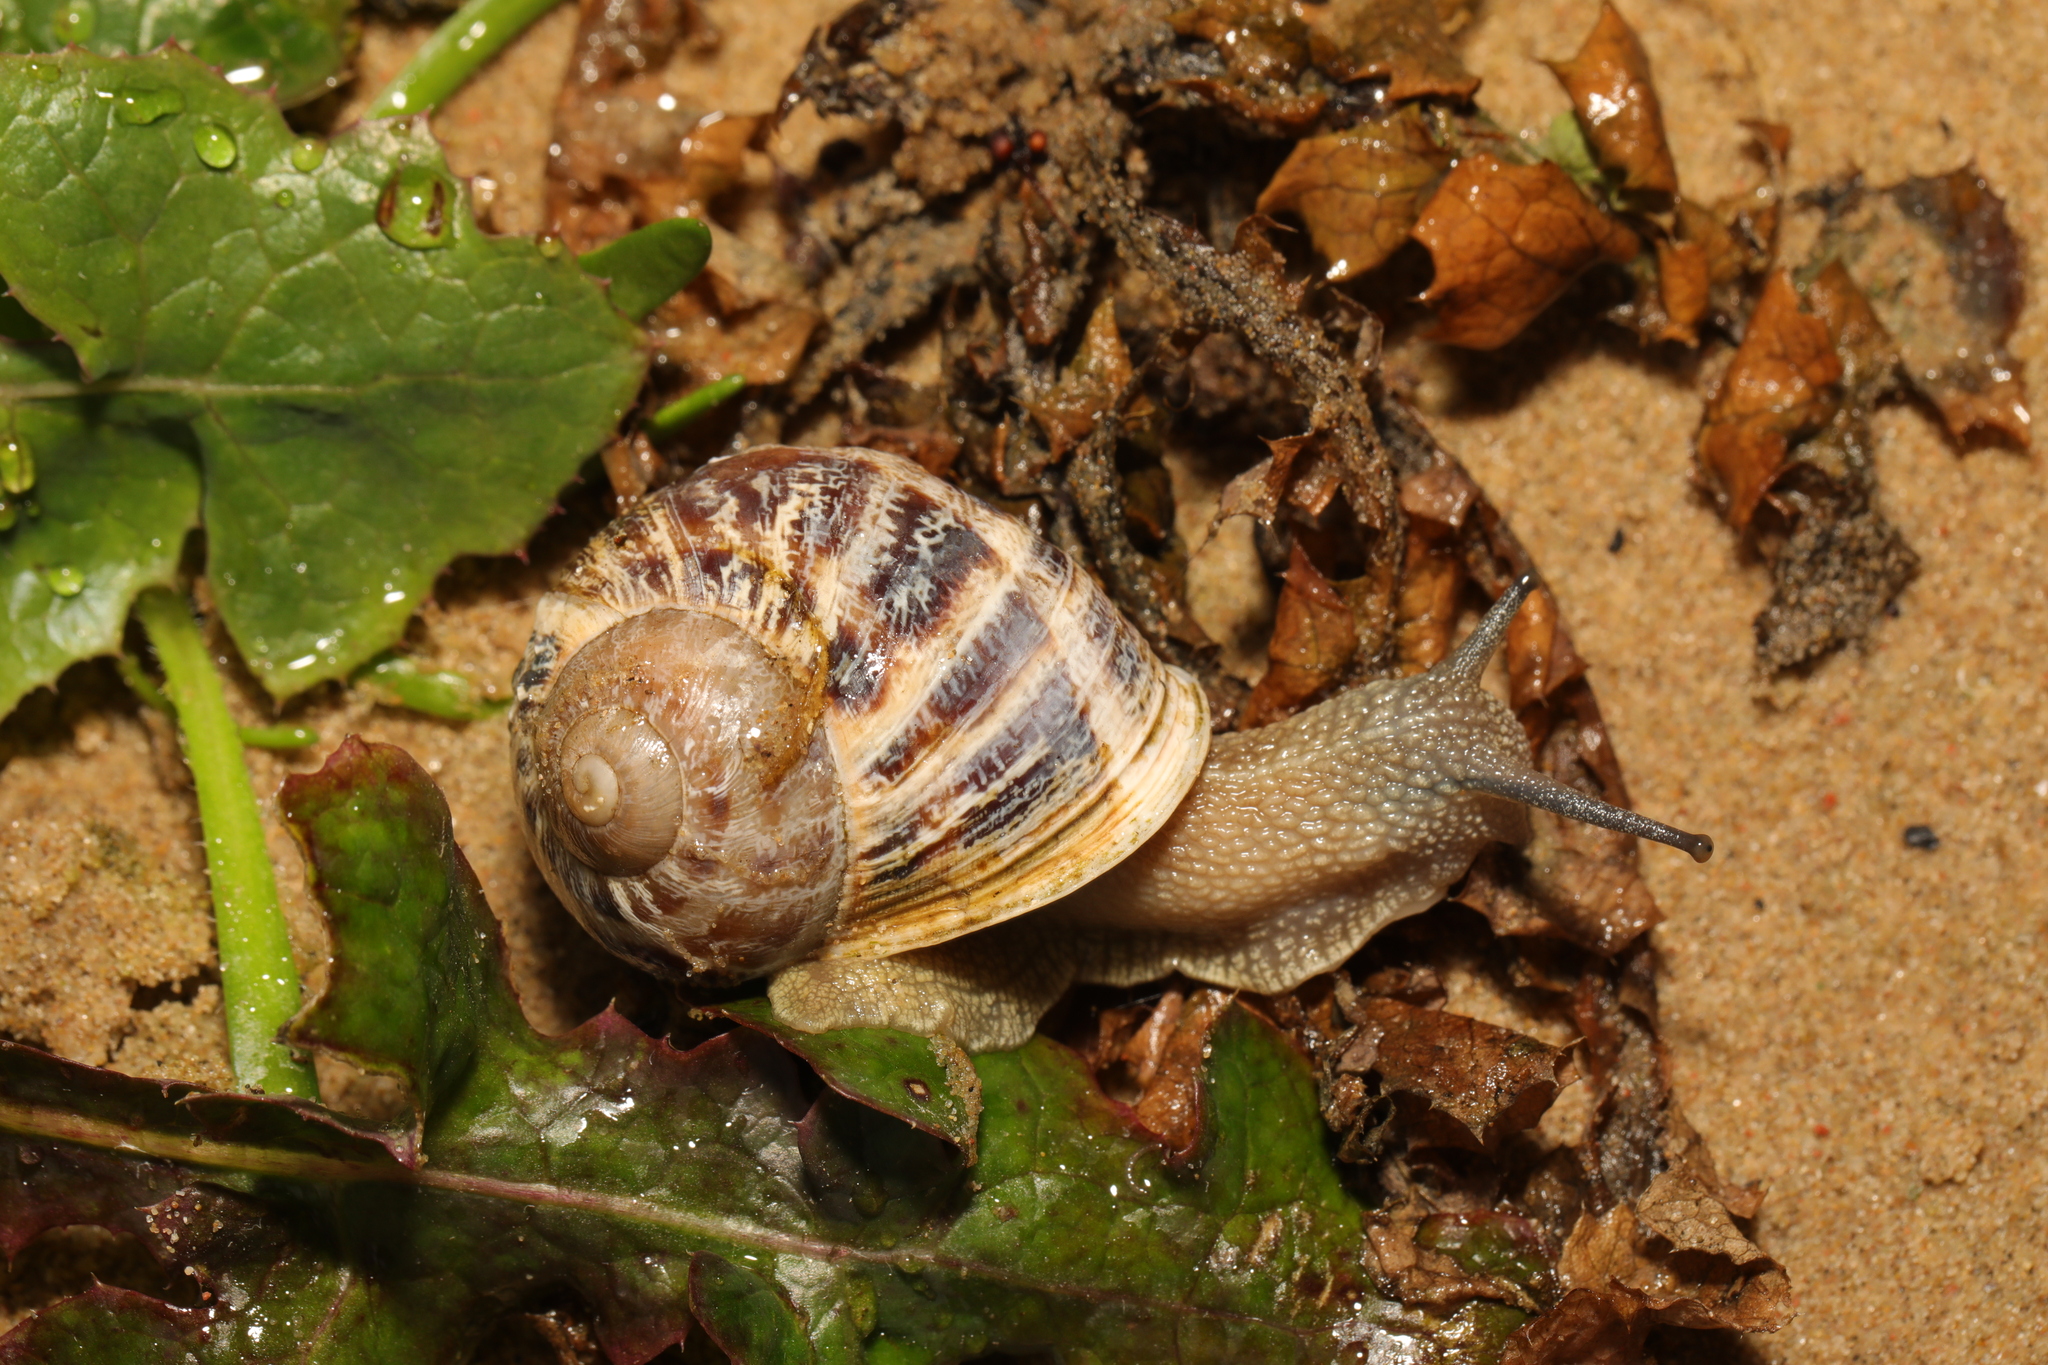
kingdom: Animalia
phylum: Mollusca
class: Gastropoda
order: Stylommatophora
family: Helicidae
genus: Cornu
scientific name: Cornu aspersum
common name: Brown garden snail
